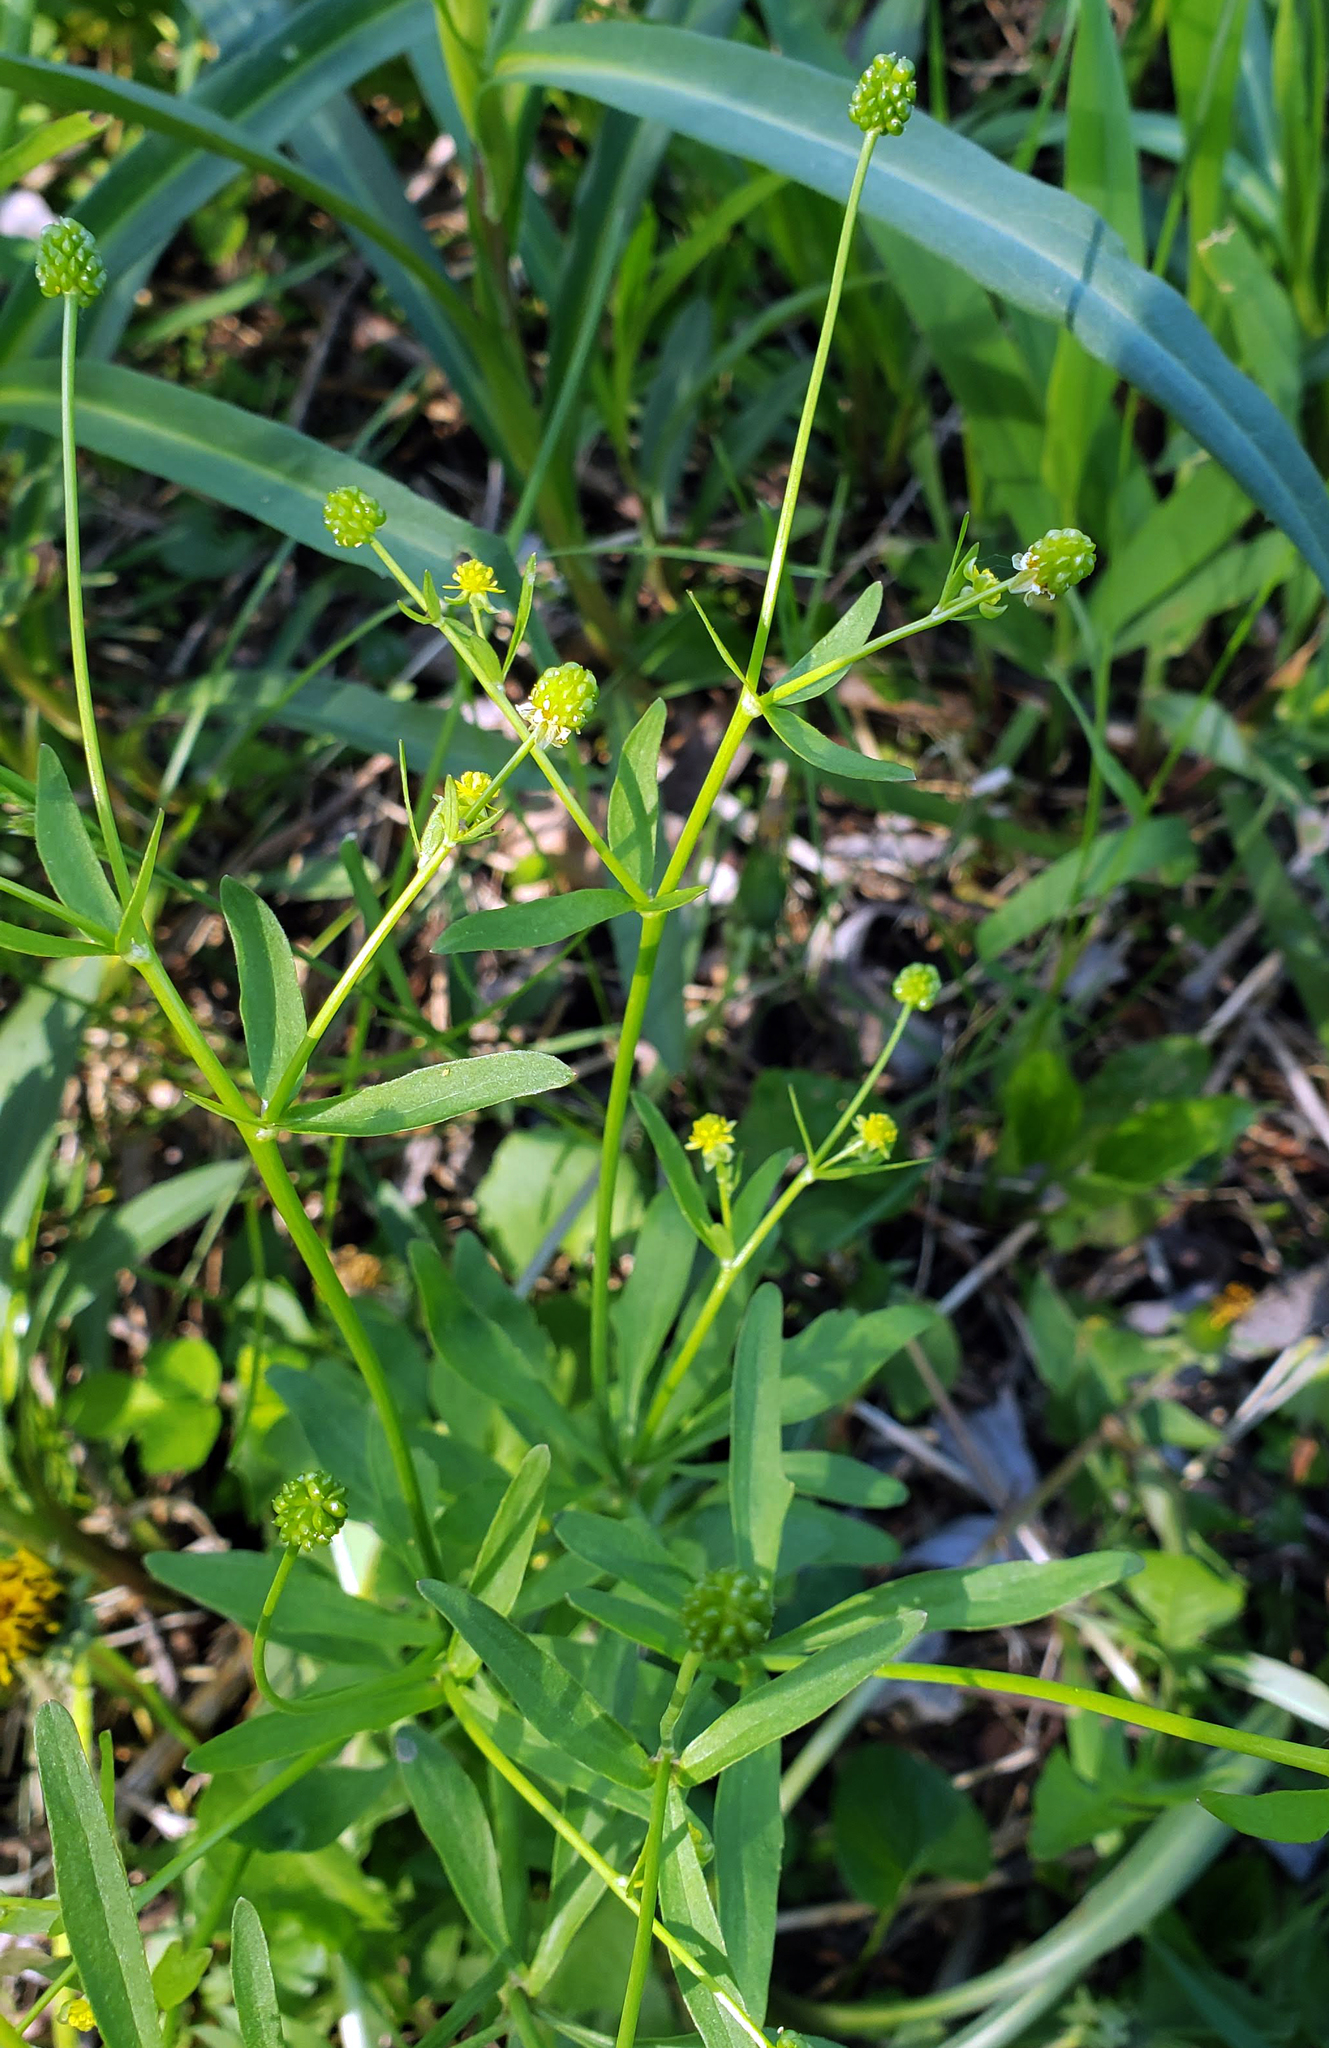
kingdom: Plantae
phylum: Tracheophyta
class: Magnoliopsida
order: Ranunculales
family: Ranunculaceae
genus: Ranunculus
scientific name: Ranunculus abortivus
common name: Early wood buttercup
